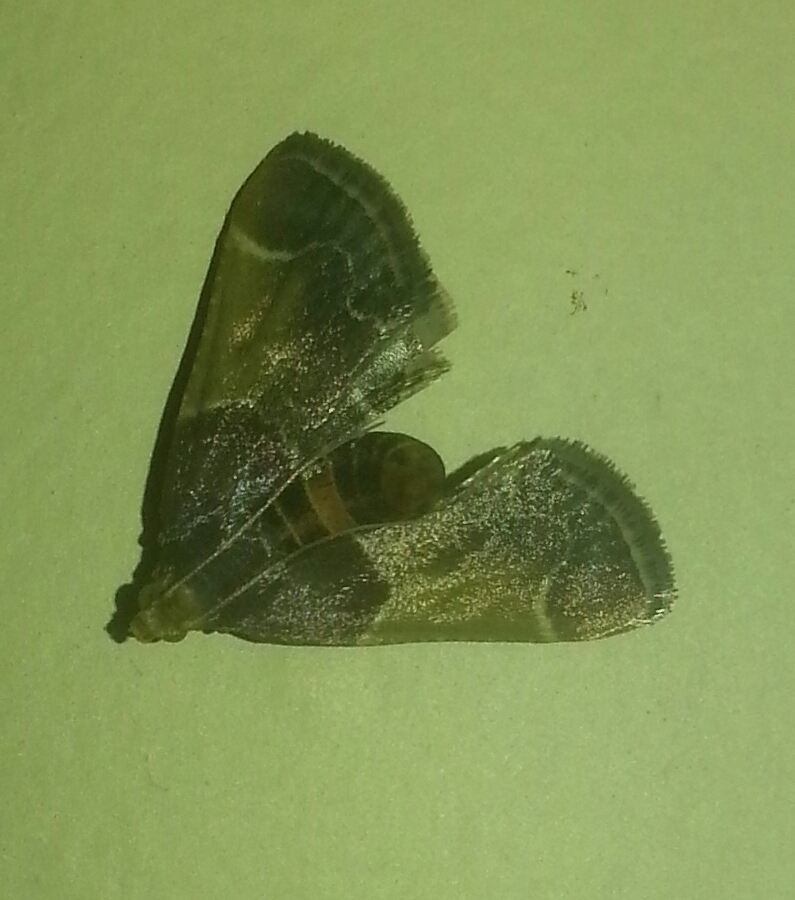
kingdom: Animalia
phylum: Arthropoda
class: Insecta
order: Lepidoptera
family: Pyralidae
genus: Pyralis
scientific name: Pyralis farinalis
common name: Meal moth
